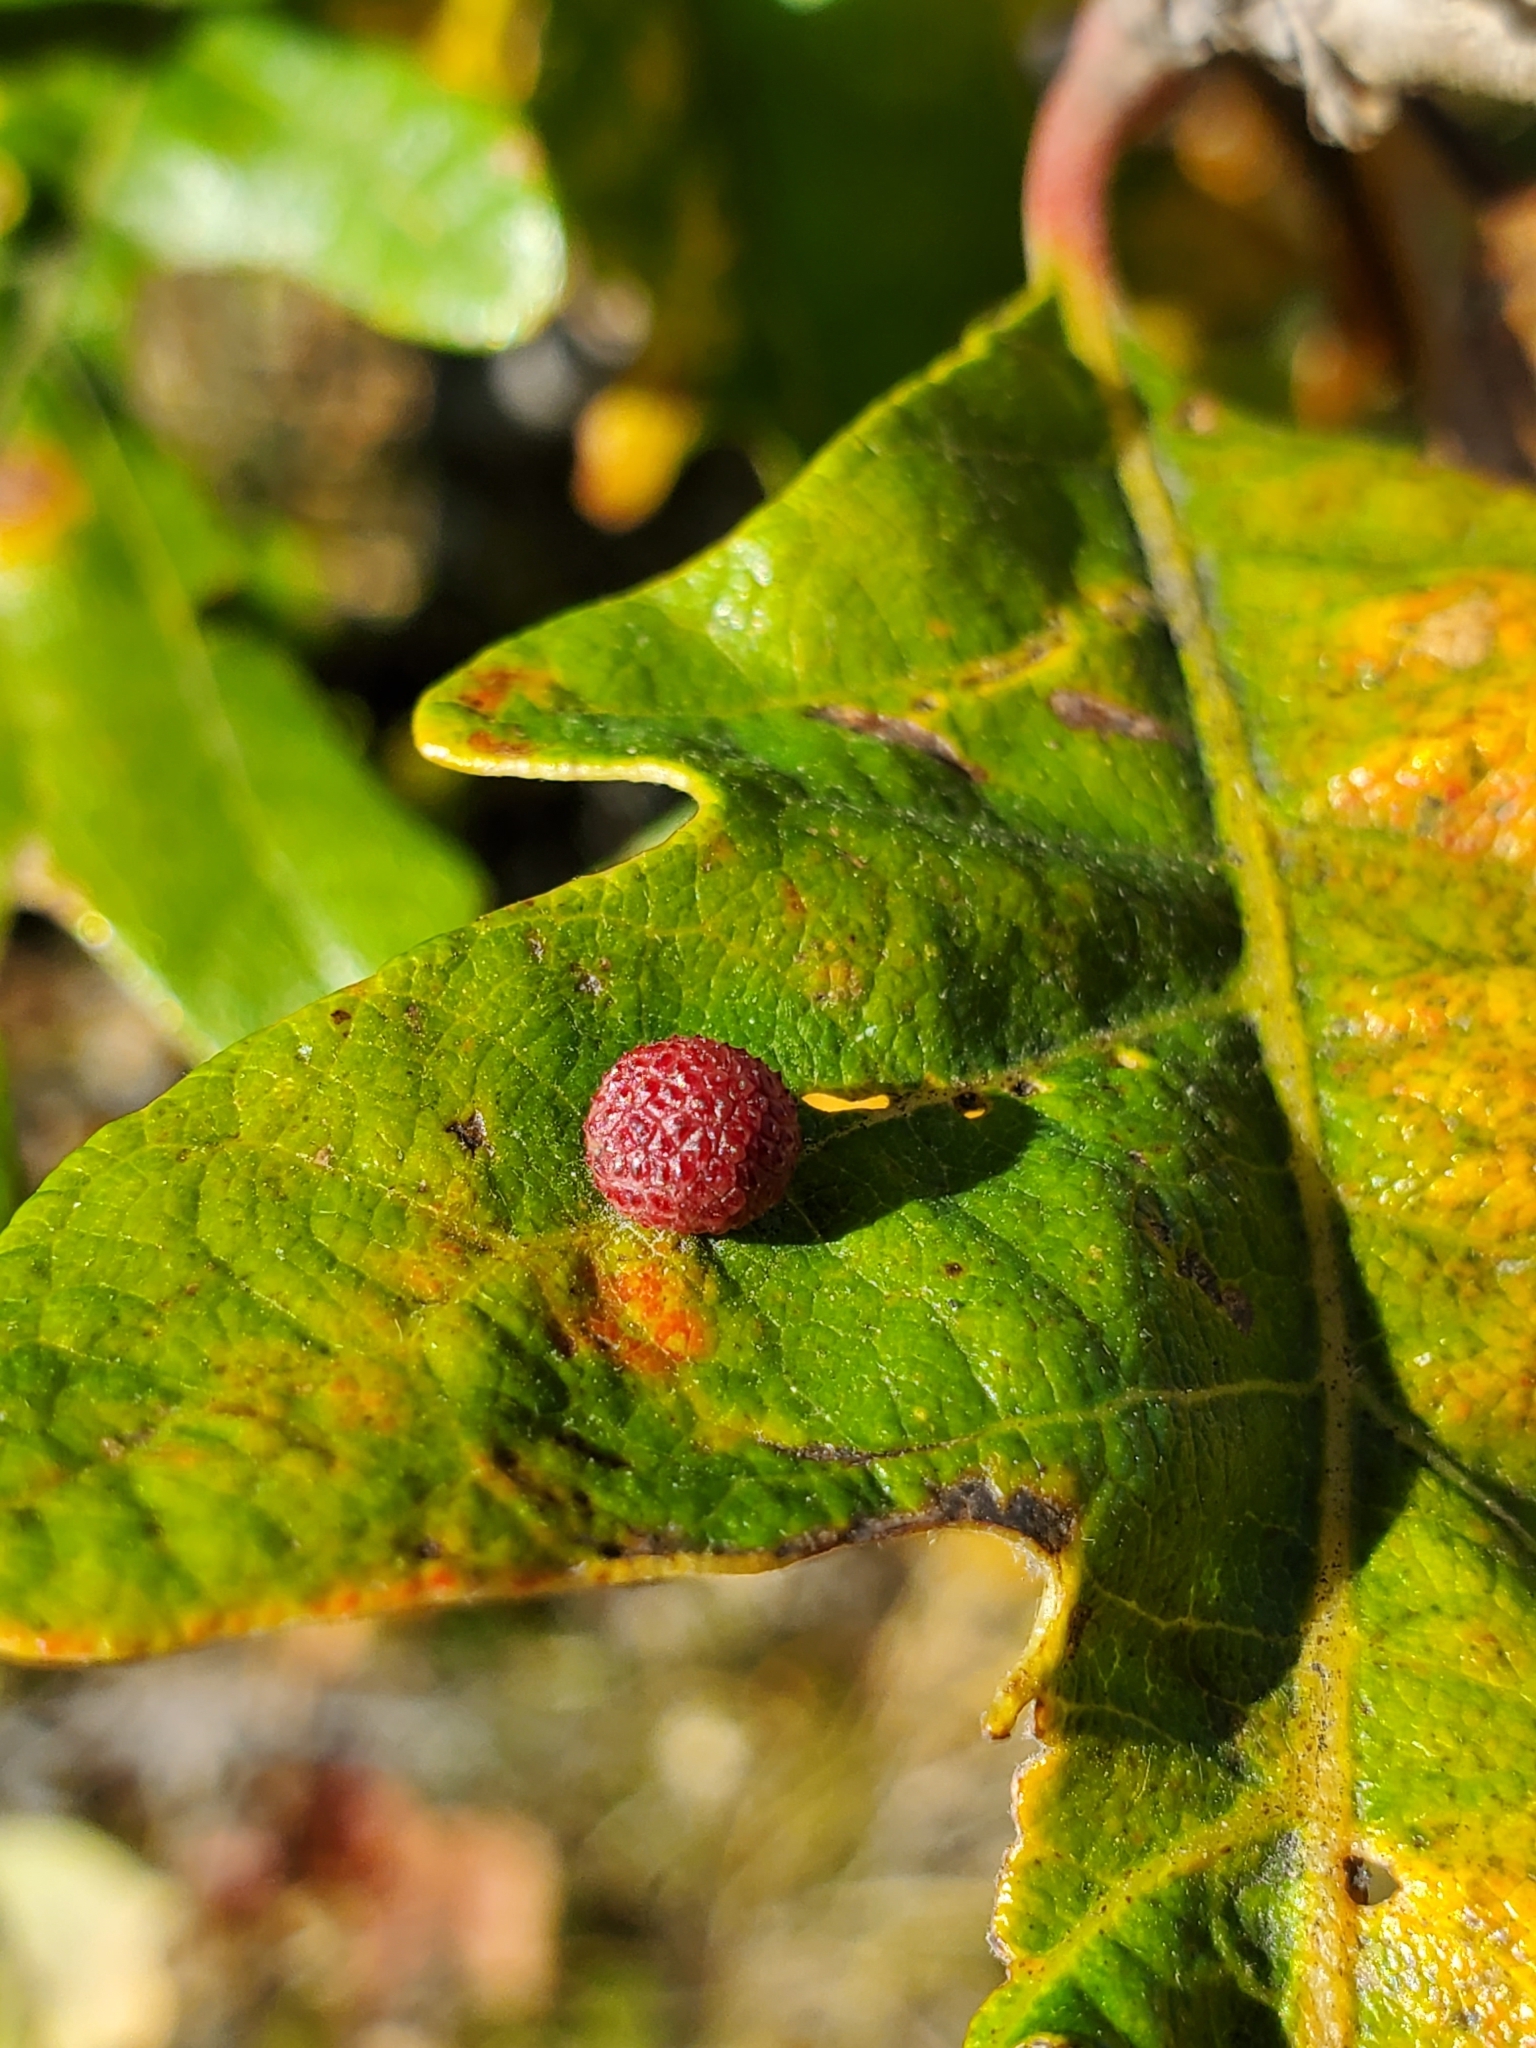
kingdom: Animalia
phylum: Arthropoda
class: Insecta
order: Hymenoptera
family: Cynipidae
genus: Acraspis
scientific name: Acraspis quercushirta
